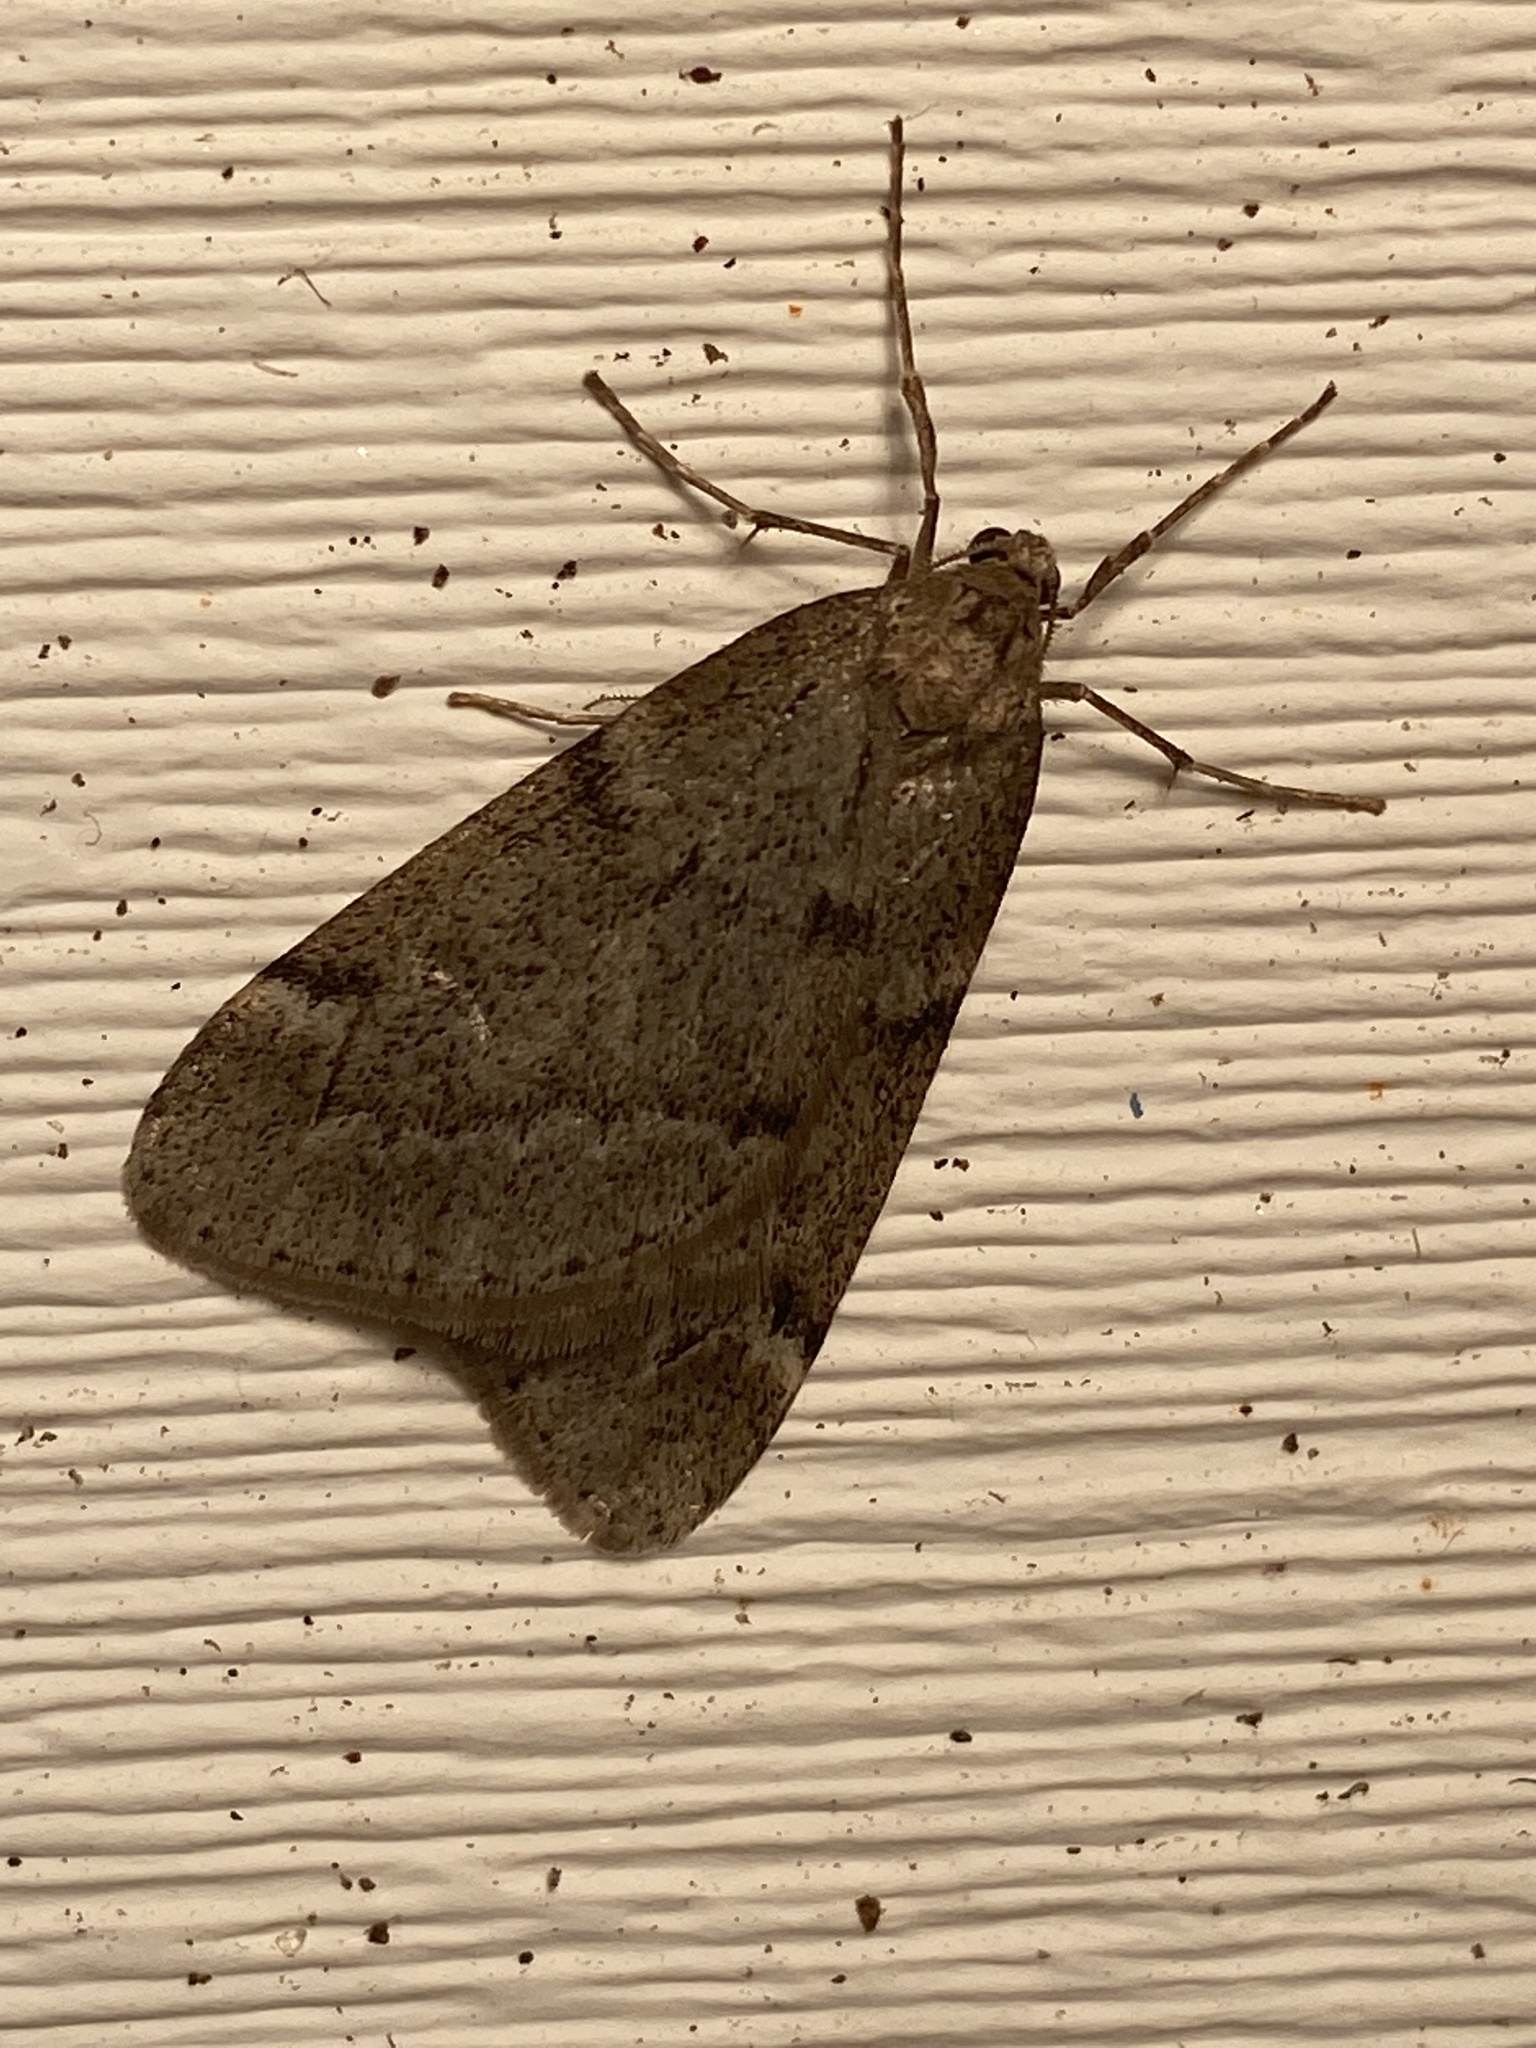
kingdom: Animalia
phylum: Arthropoda
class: Insecta
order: Lepidoptera
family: Geometridae
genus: Alsophila
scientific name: Alsophila pometaria
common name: Fall cankerworm
